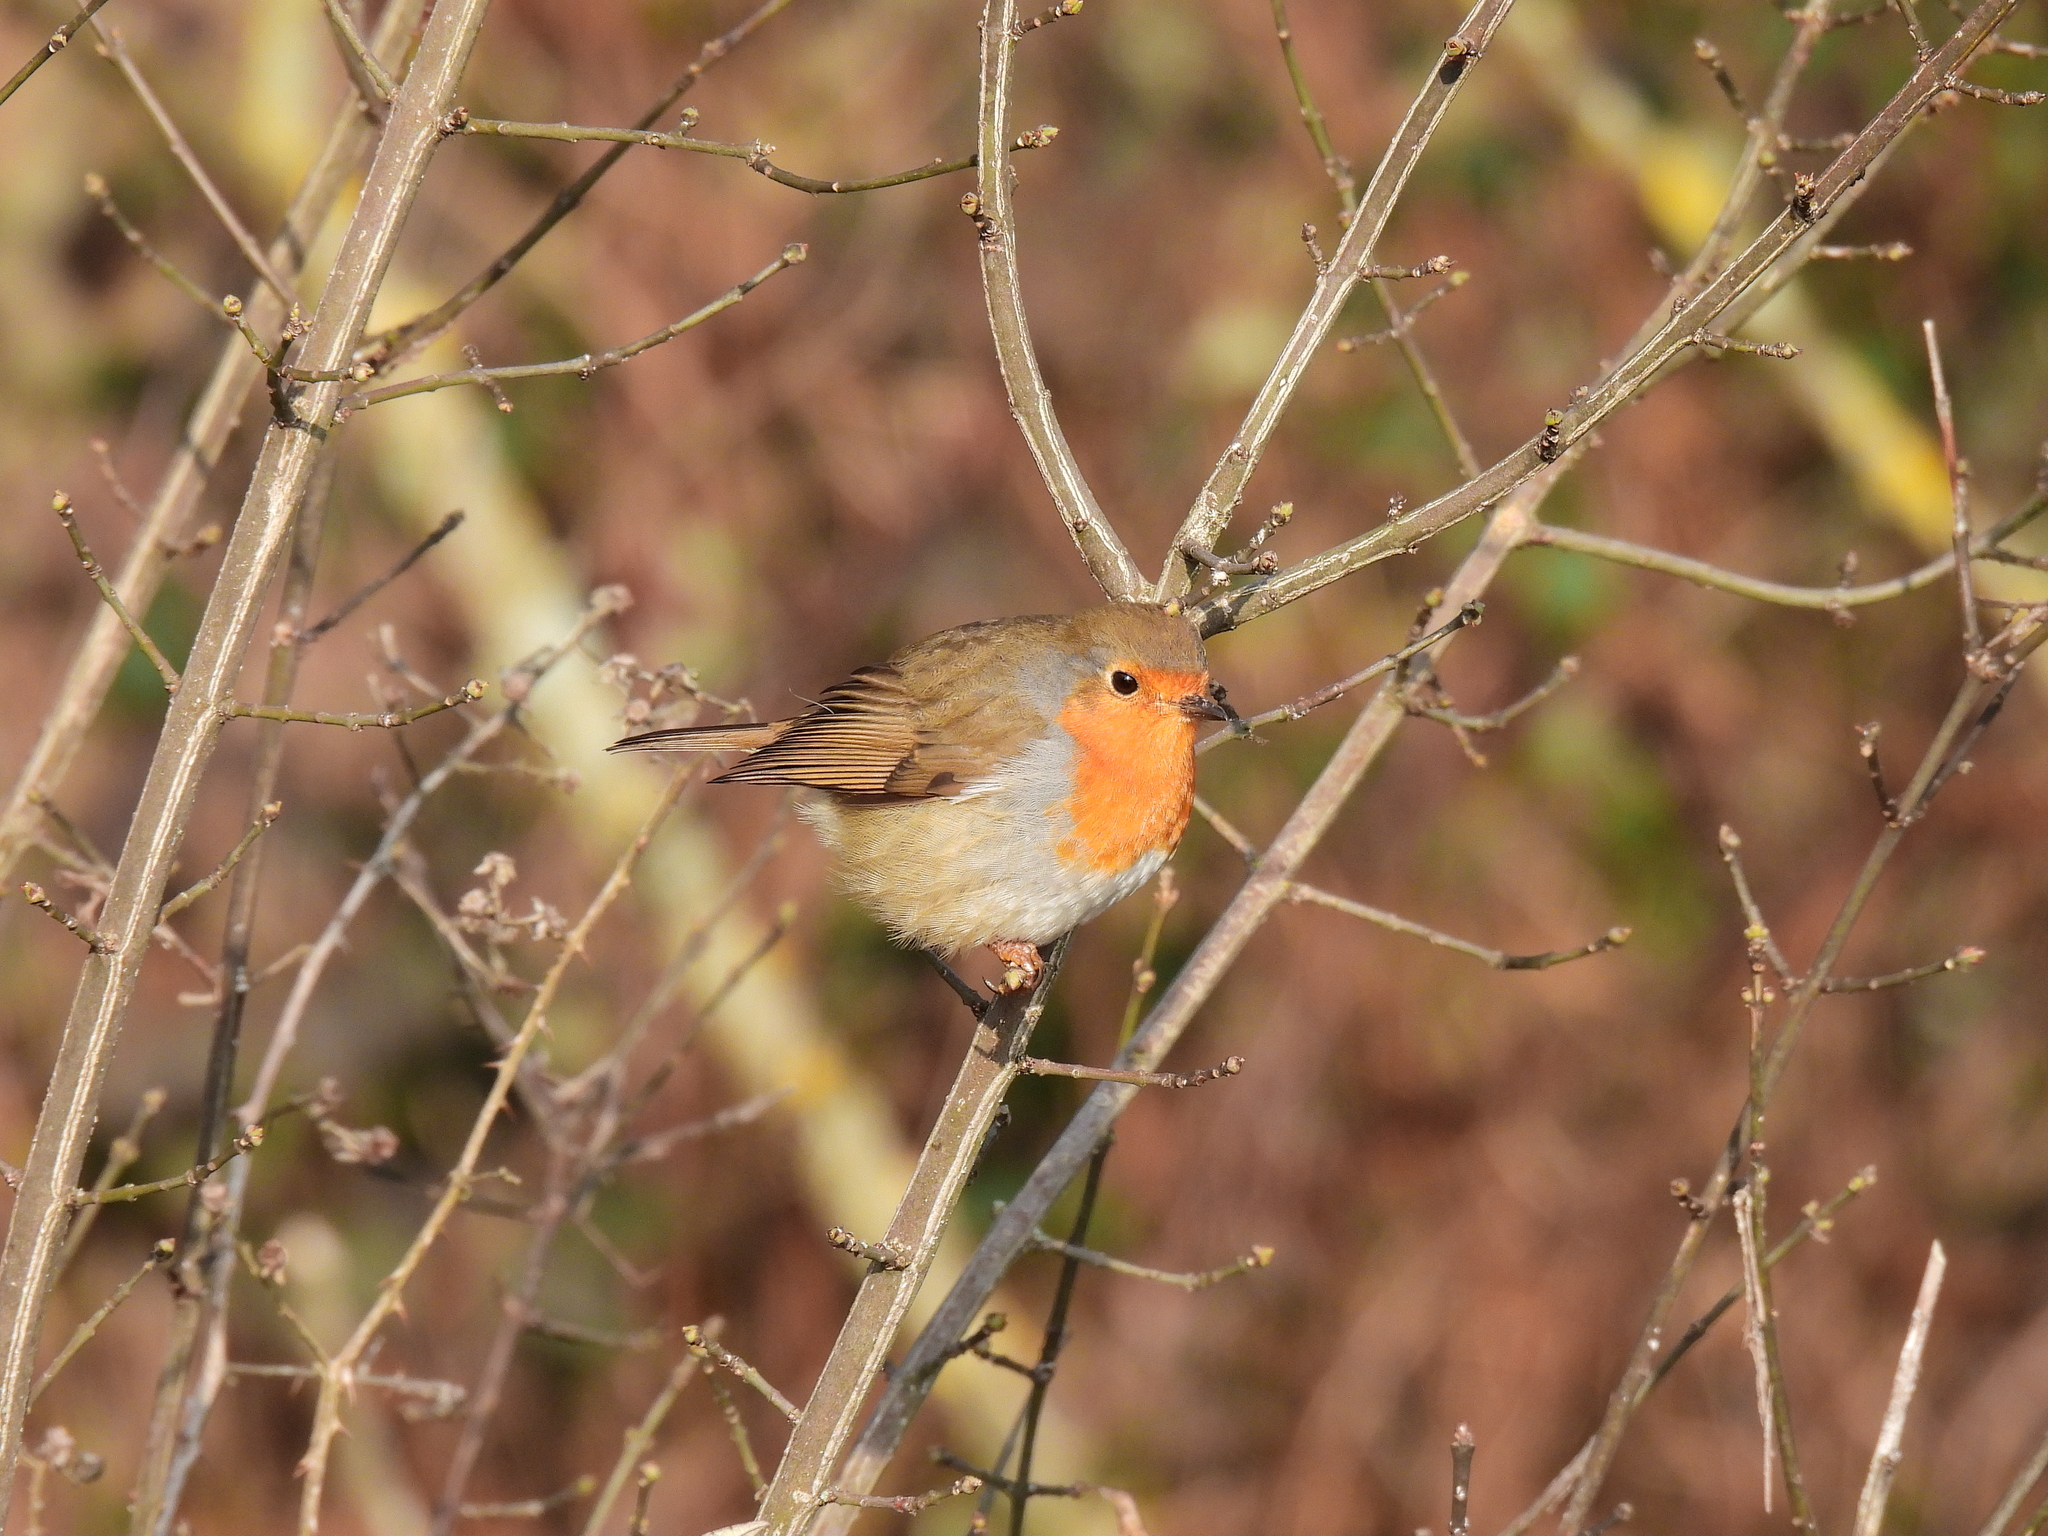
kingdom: Animalia
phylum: Chordata
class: Aves
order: Passeriformes
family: Muscicapidae
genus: Erithacus
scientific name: Erithacus rubecula
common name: European robin
